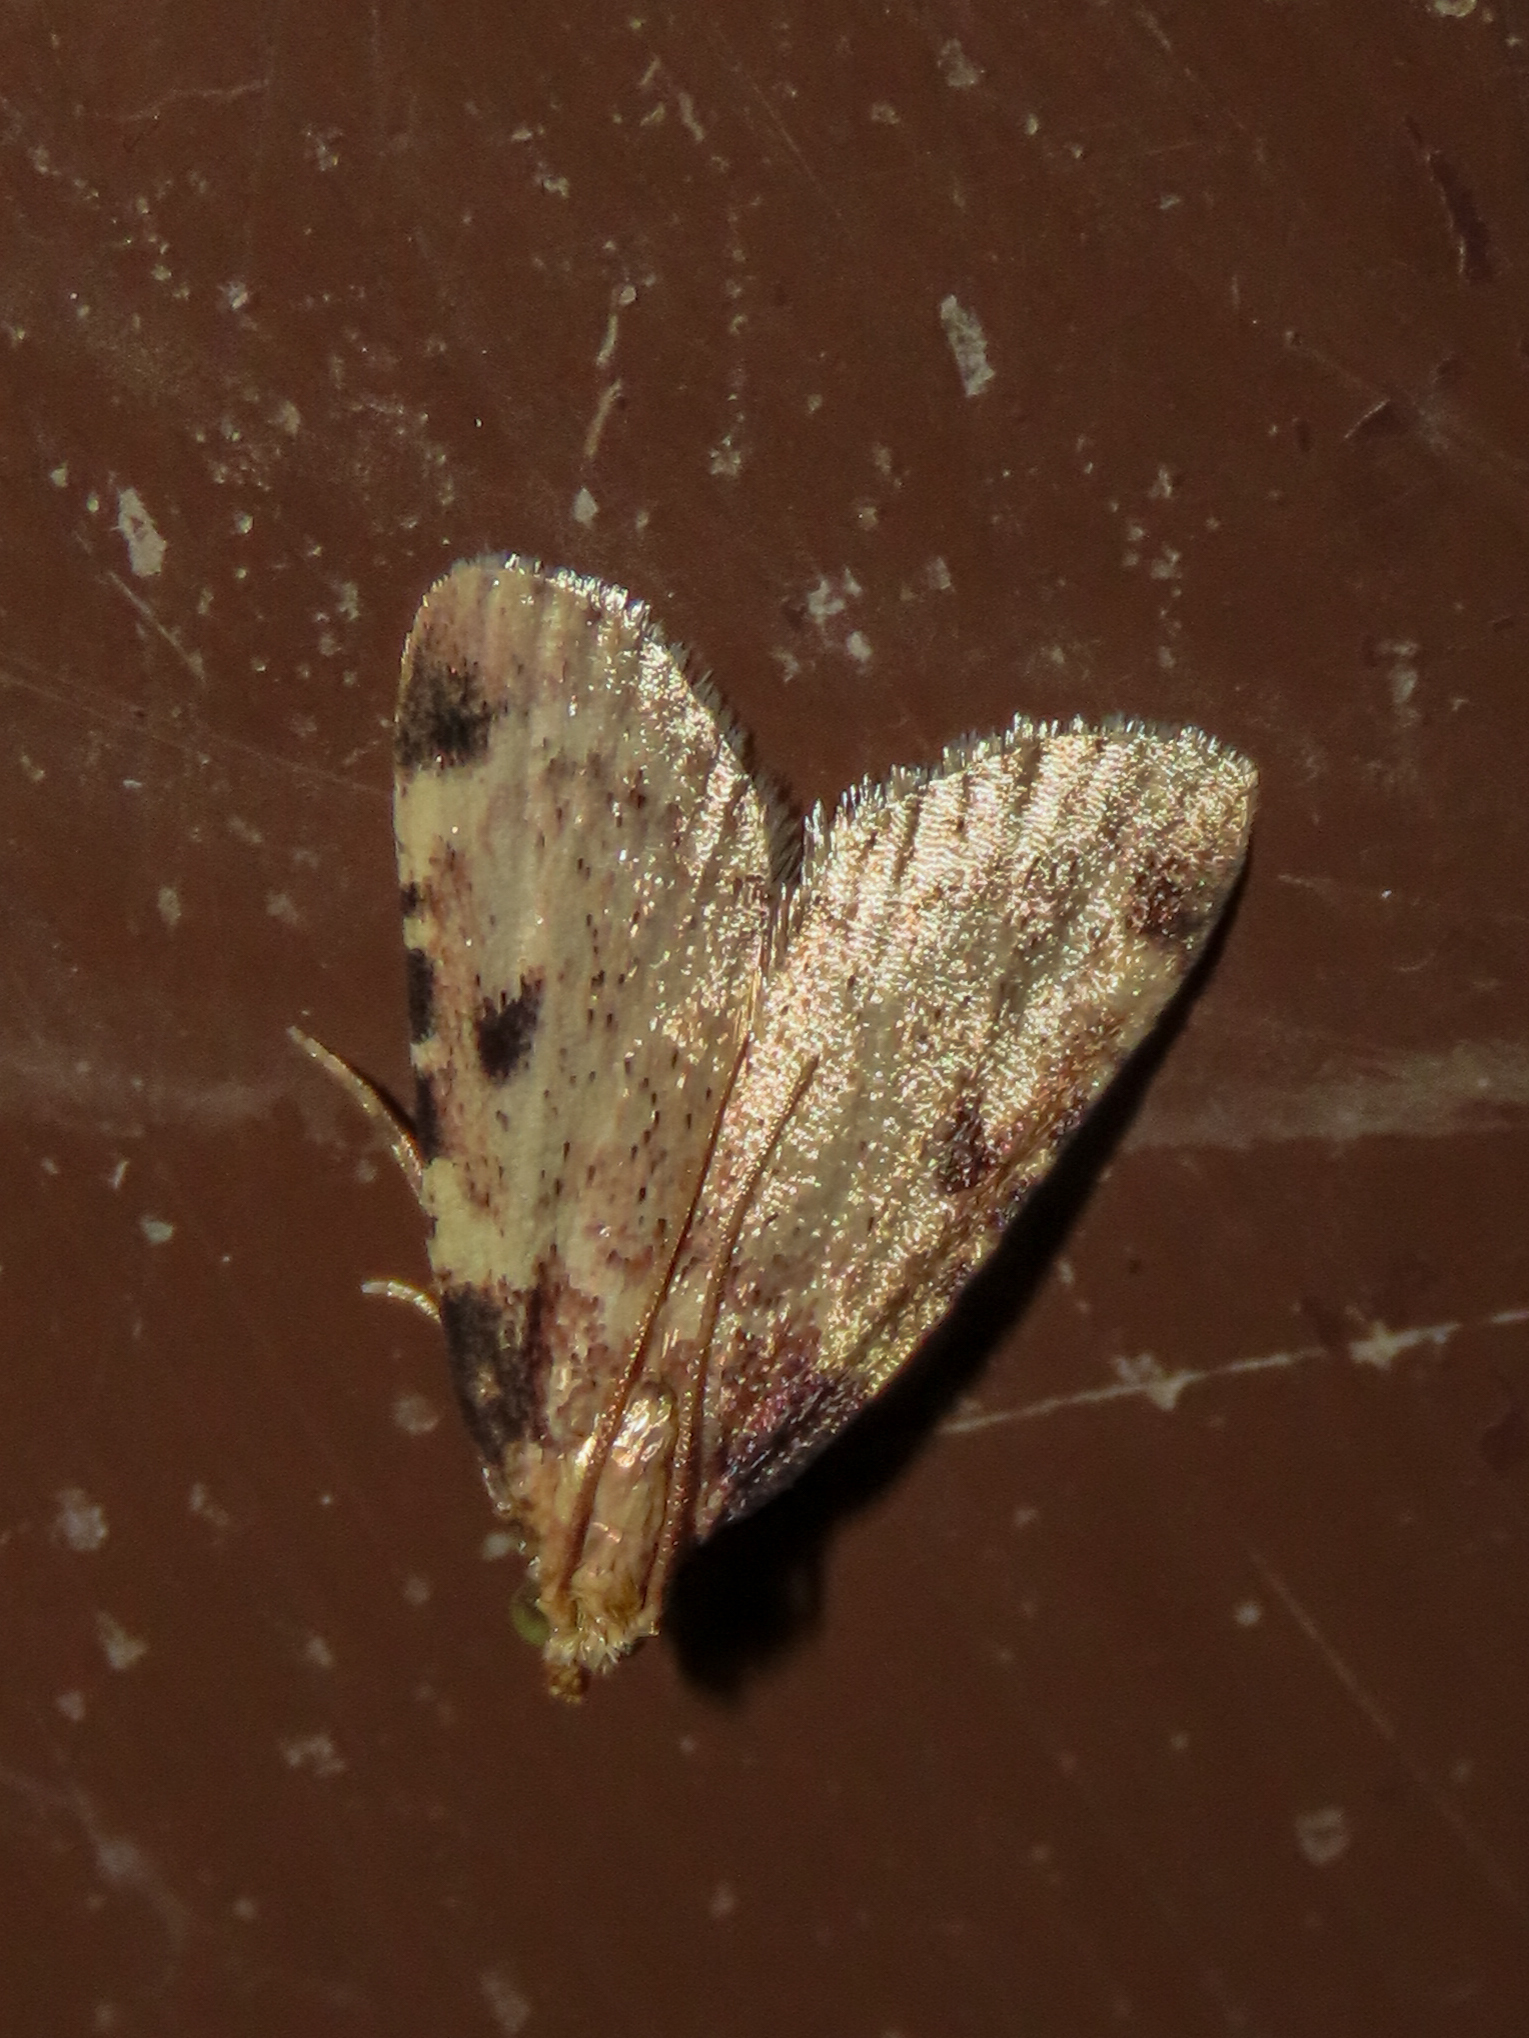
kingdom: Animalia
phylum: Arthropoda
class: Insecta
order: Lepidoptera
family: Pyralidae
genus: Aglossa
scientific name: Aglossa costiferalis
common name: Calico pyralid moth
